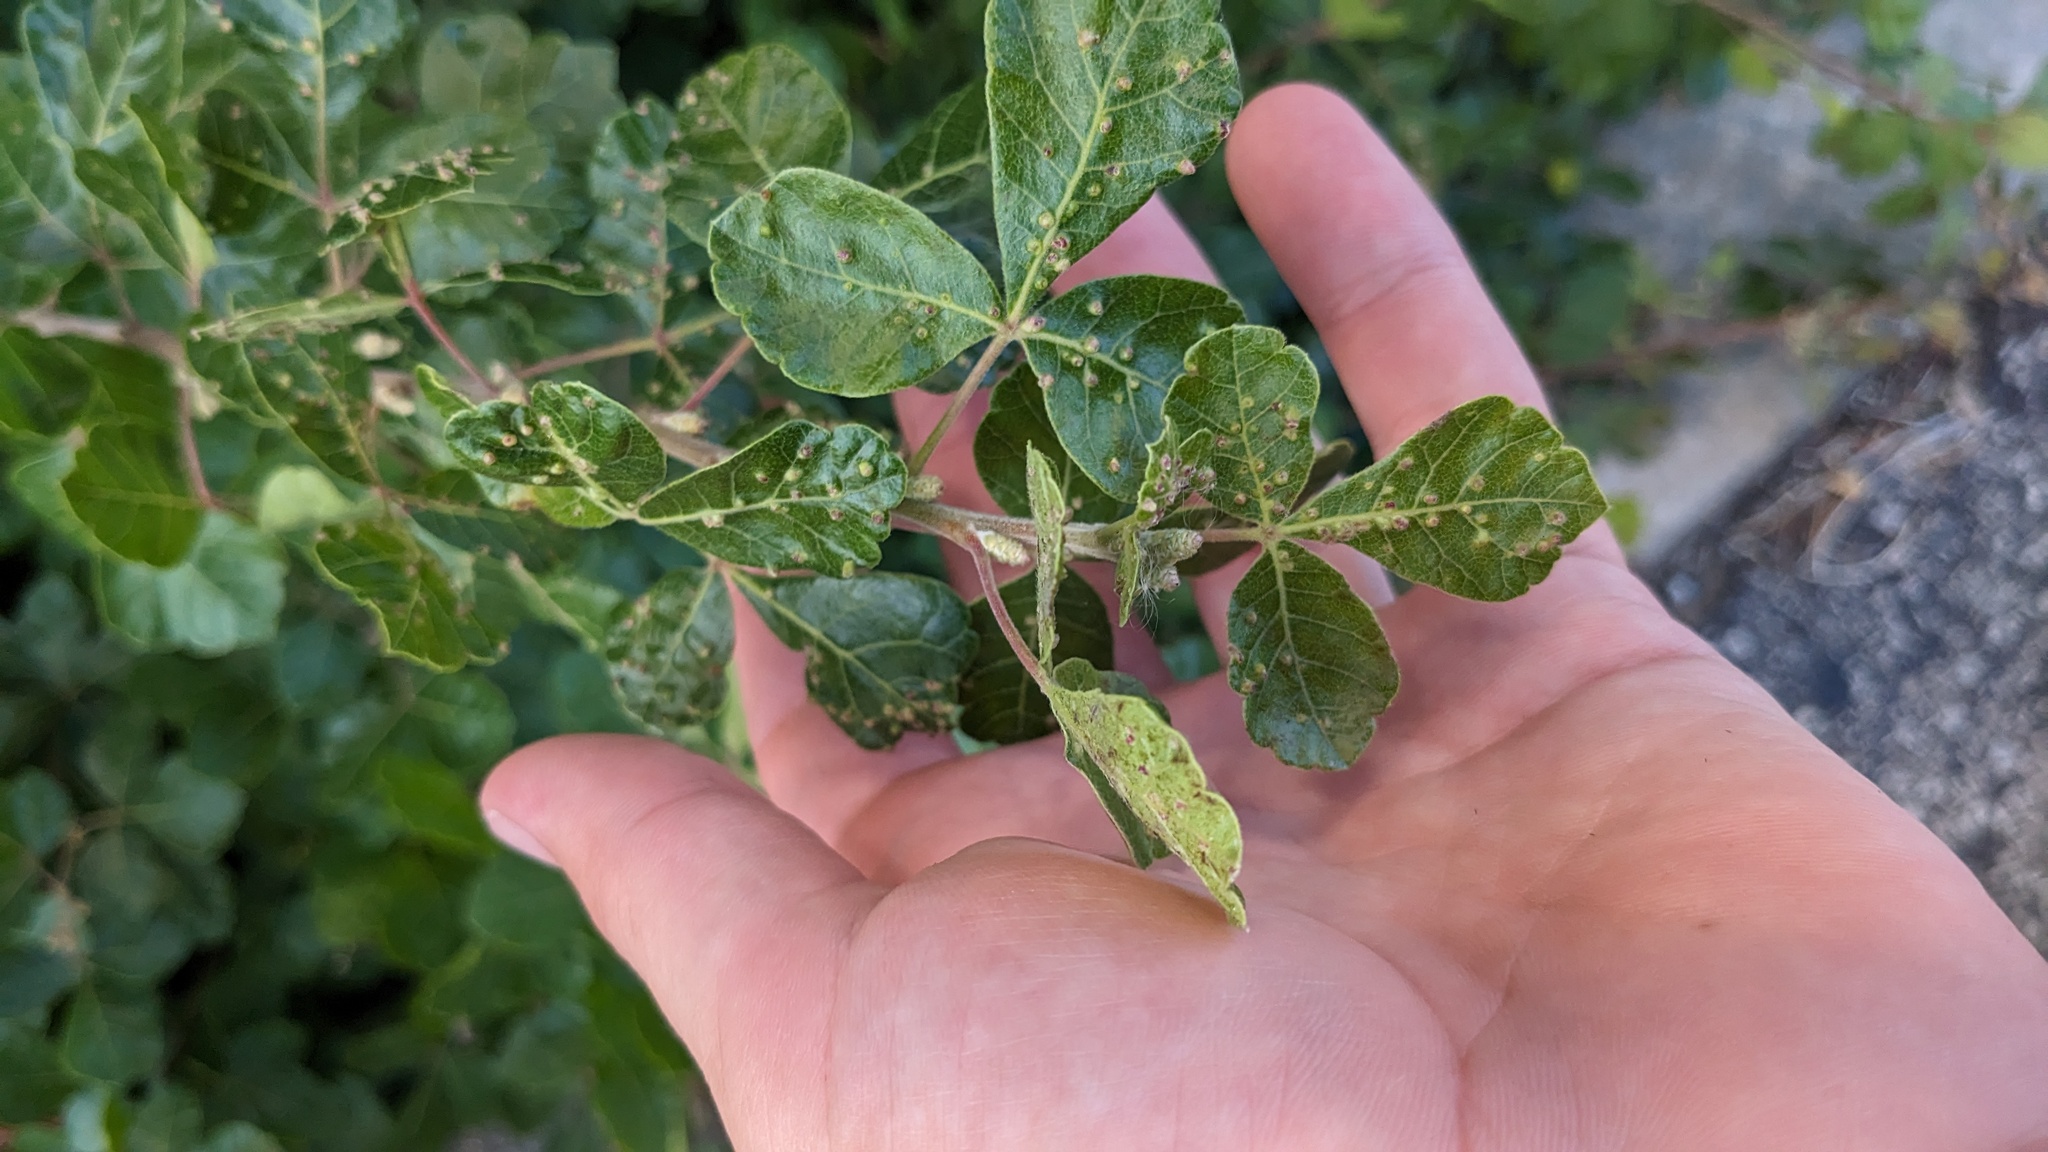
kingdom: Animalia
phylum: Arthropoda
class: Arachnida
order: Trombidiformes
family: Eriophyidae
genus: Aculops
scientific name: Aculops
